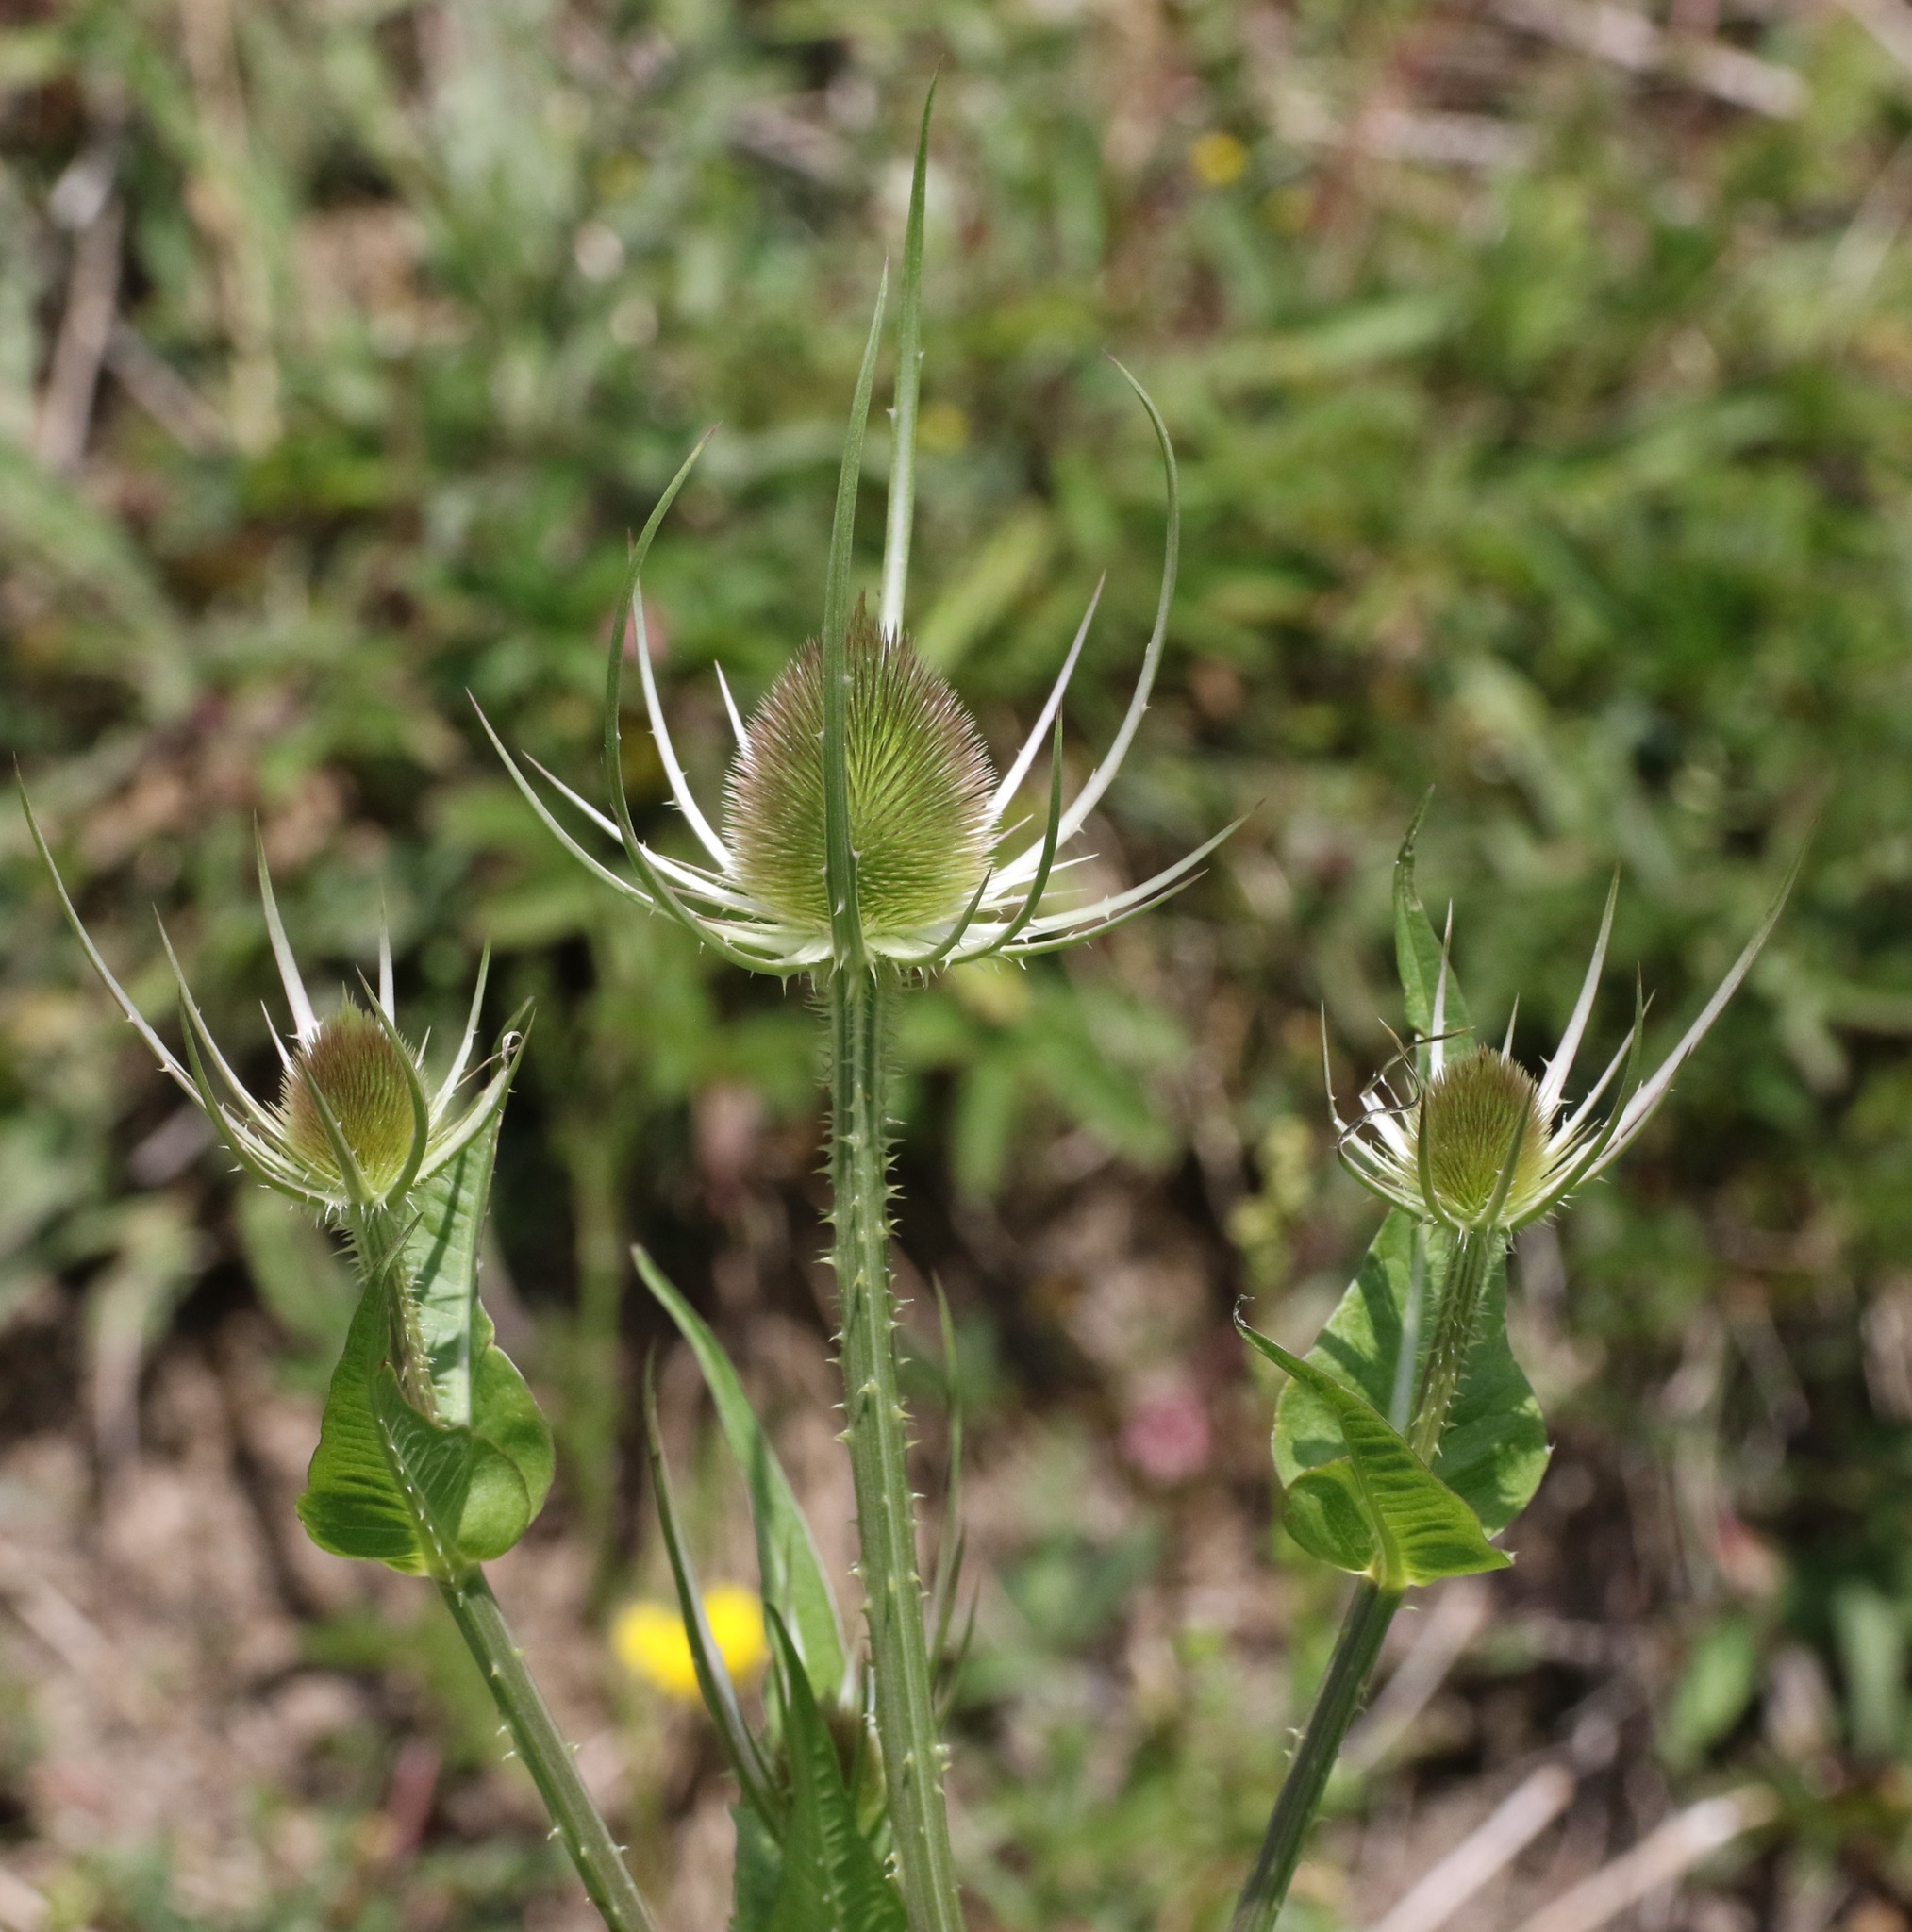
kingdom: Plantae
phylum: Tracheophyta
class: Magnoliopsida
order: Dipsacales
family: Caprifoliaceae
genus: Dipsacus
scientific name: Dipsacus fullonum
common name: Teasel
